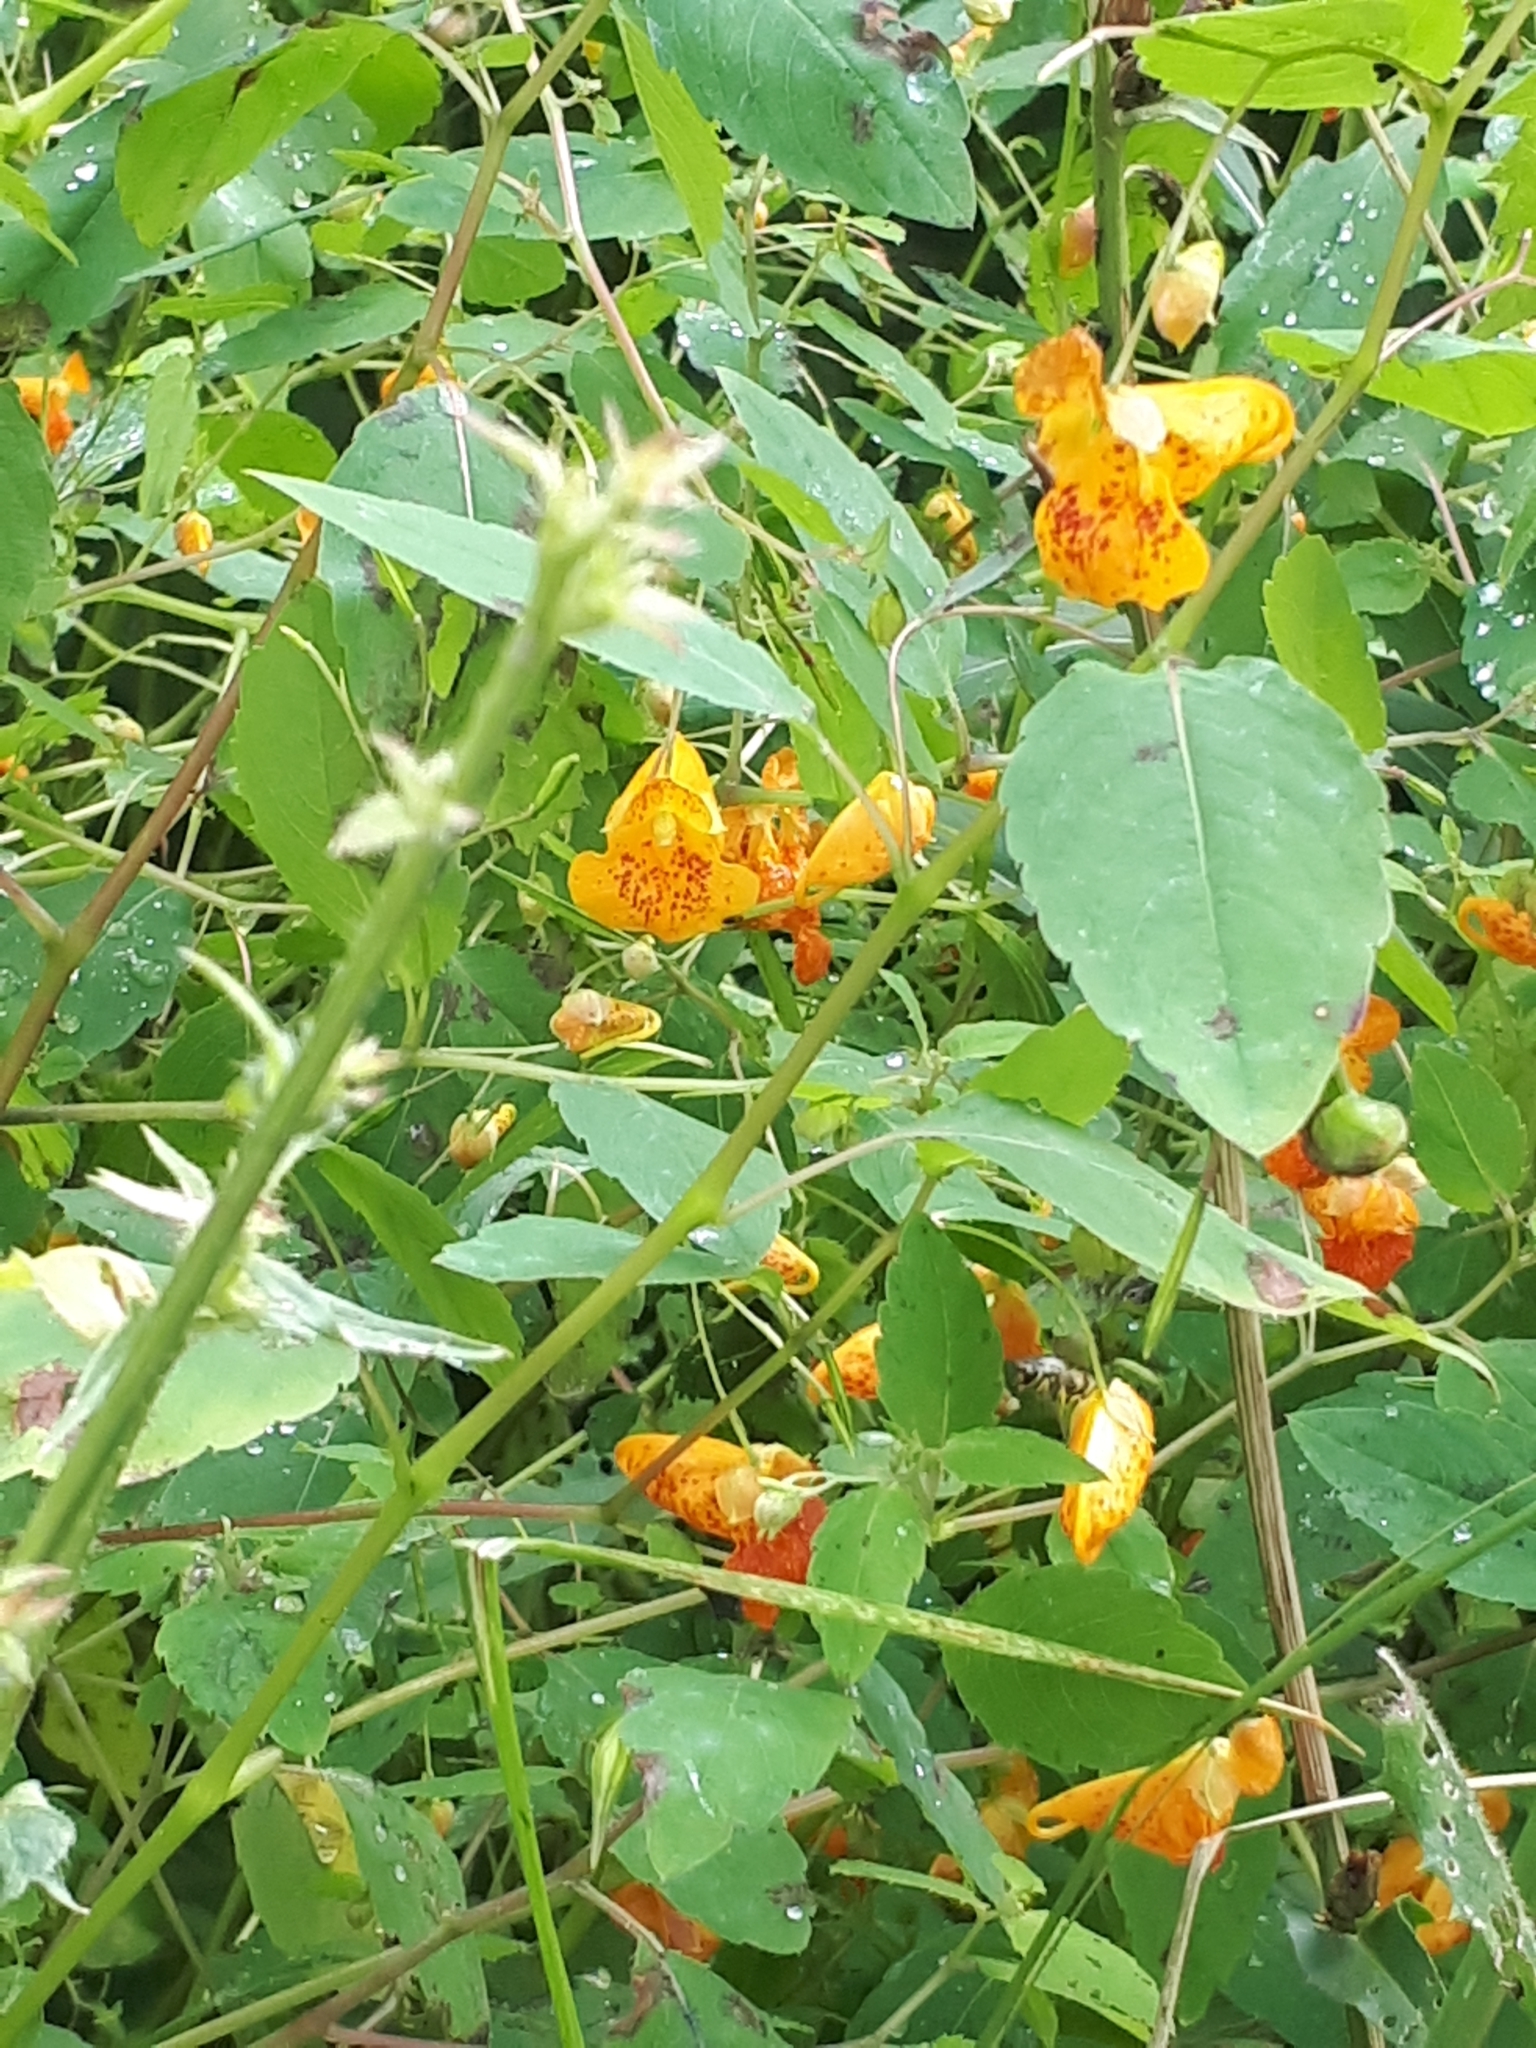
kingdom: Plantae
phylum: Tracheophyta
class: Magnoliopsida
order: Ericales
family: Balsaminaceae
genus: Impatiens
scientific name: Impatiens capensis
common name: Orange balsam
